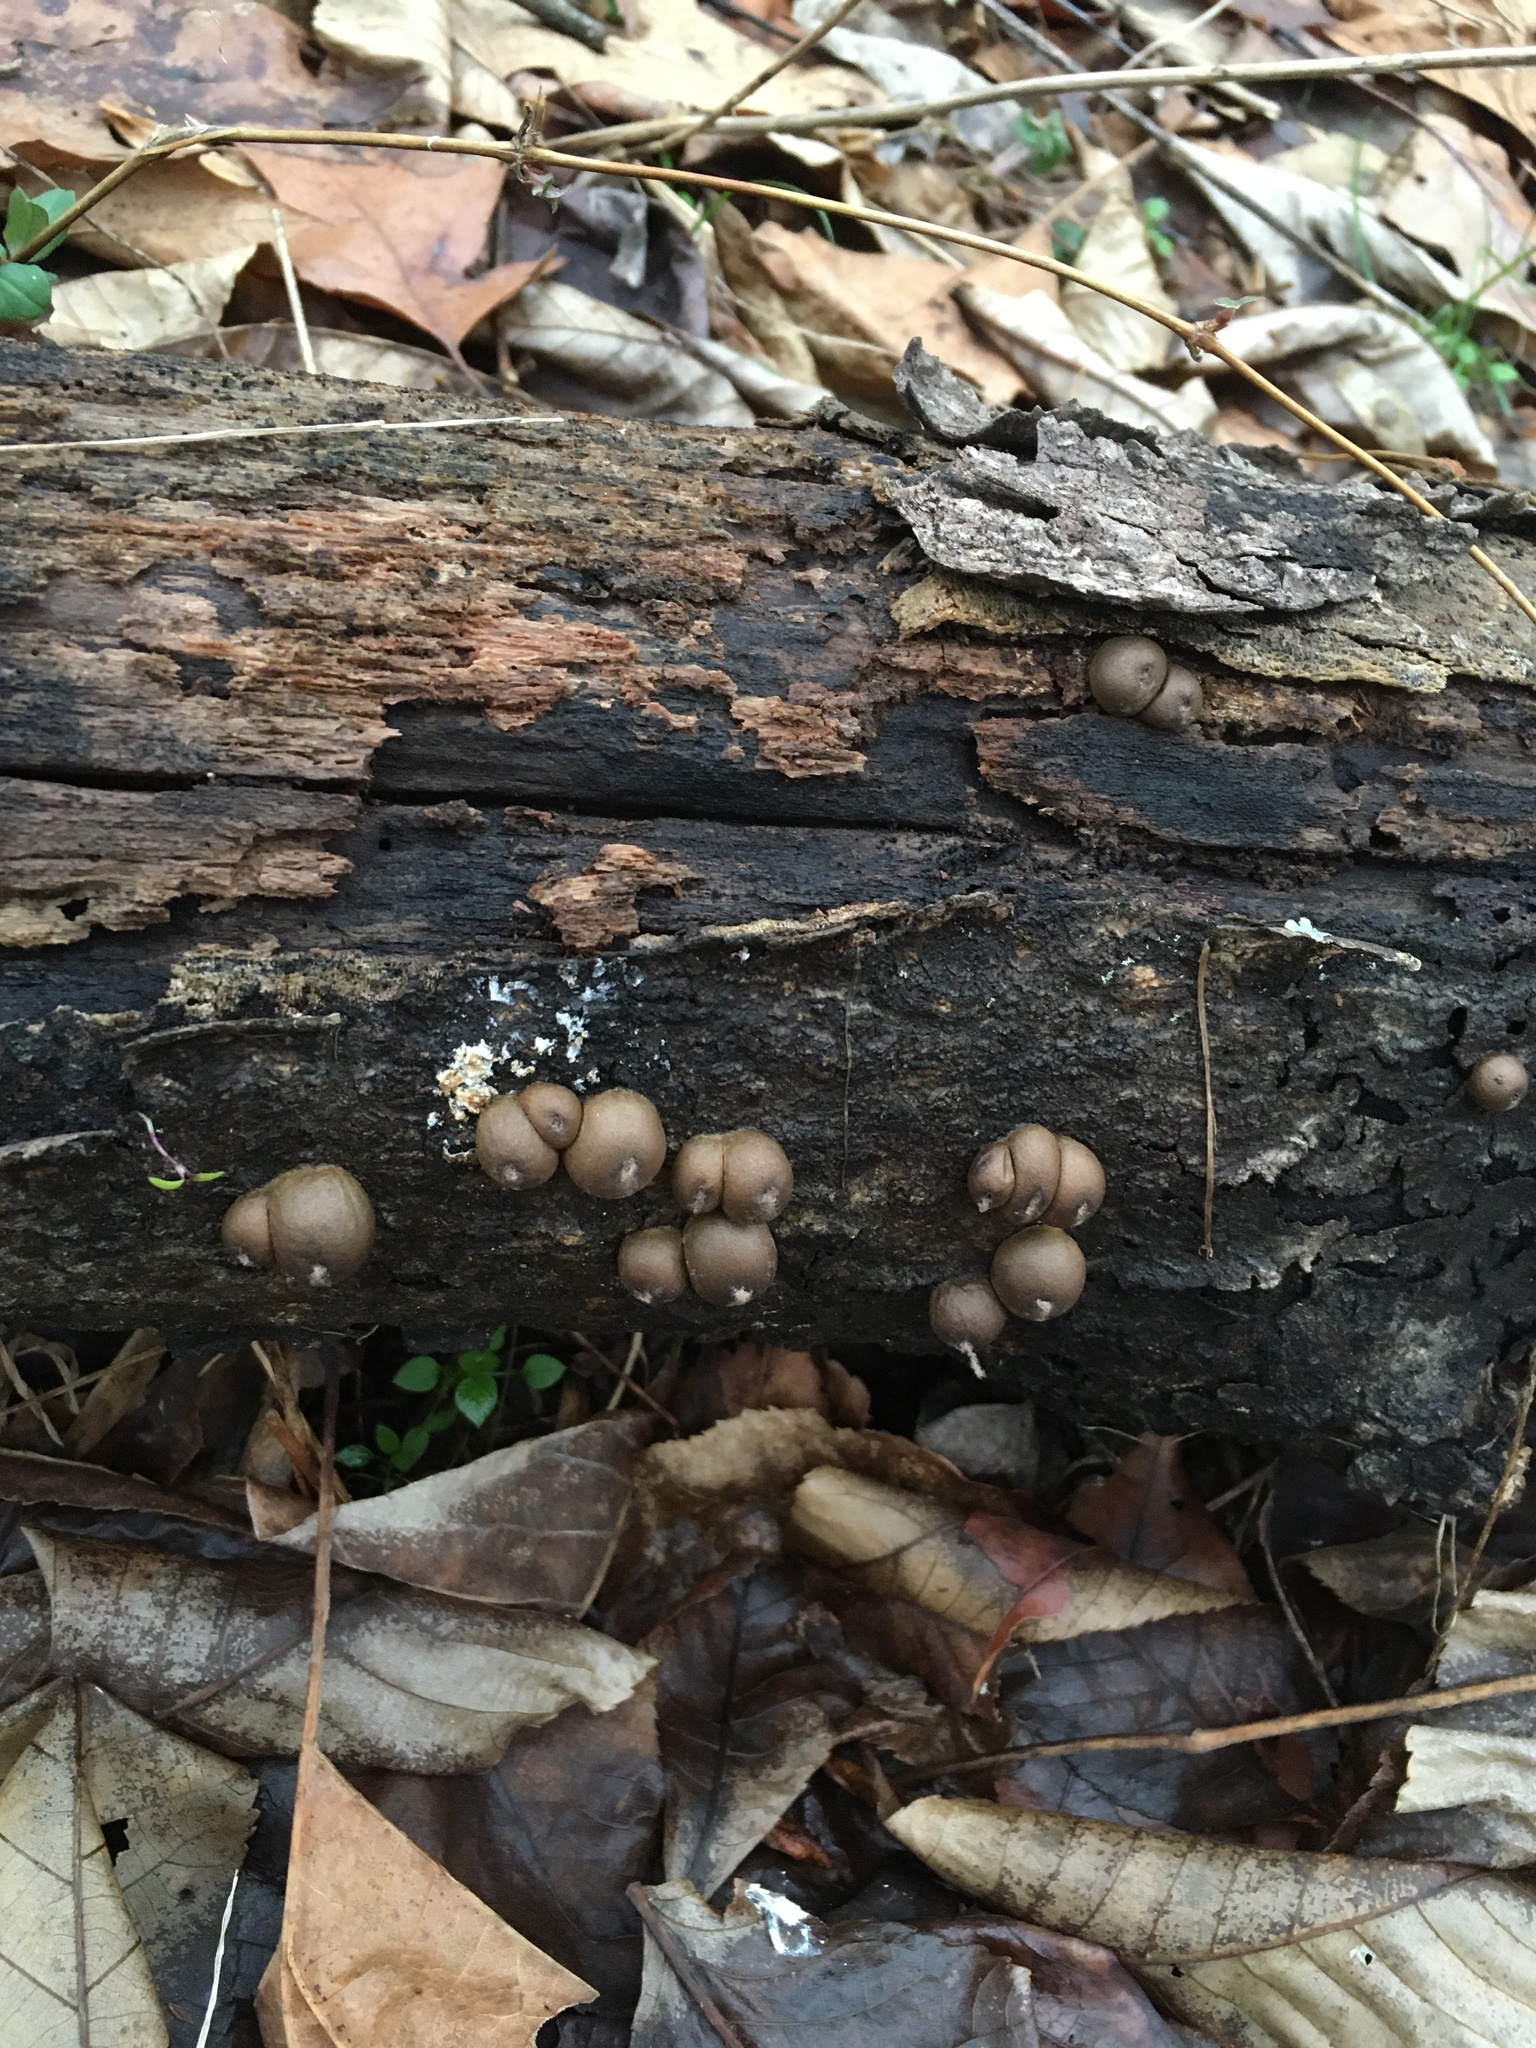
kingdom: Fungi
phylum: Basidiomycota
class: Agaricomycetes
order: Agaricales
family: Lycoperdaceae
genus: Apioperdon
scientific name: Apioperdon pyriforme
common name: Pear-shaped puffball
